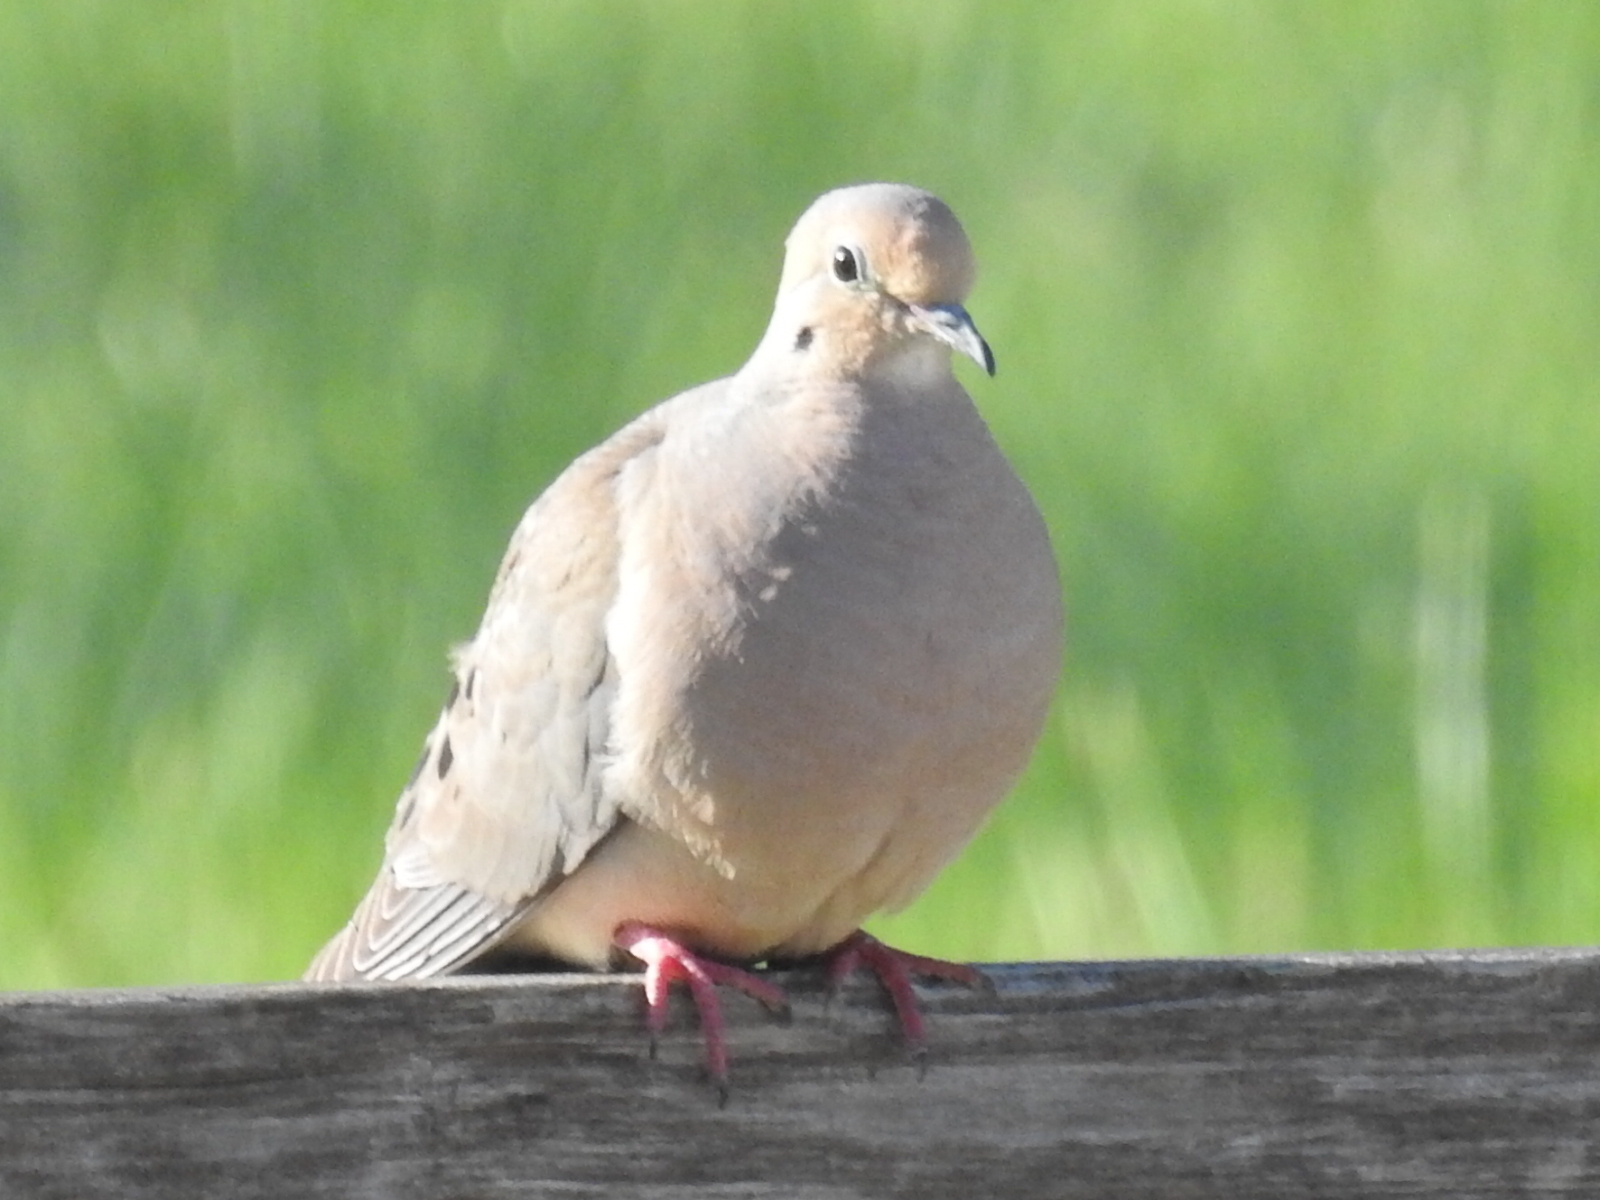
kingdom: Animalia
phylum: Chordata
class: Aves
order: Columbiformes
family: Columbidae
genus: Zenaida
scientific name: Zenaida macroura
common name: Mourning dove
